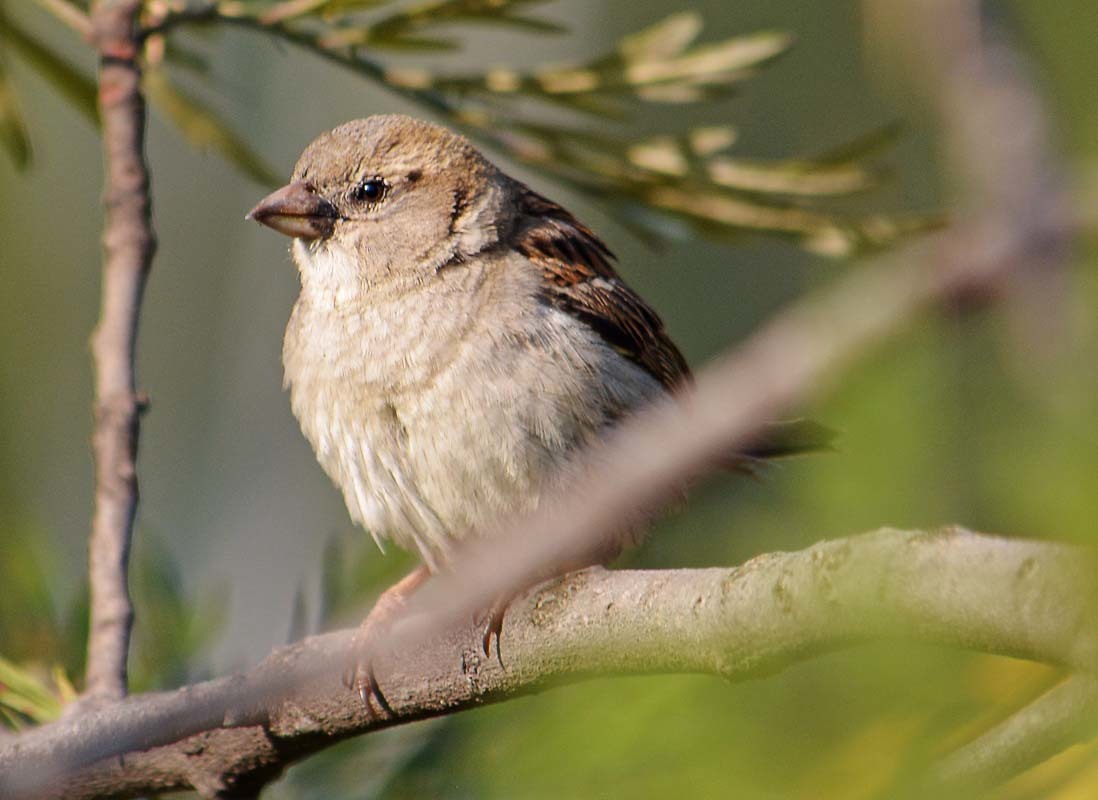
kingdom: Animalia
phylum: Chordata
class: Aves
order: Passeriformes
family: Passeridae
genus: Passer
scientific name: Passer domesticus
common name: House sparrow
